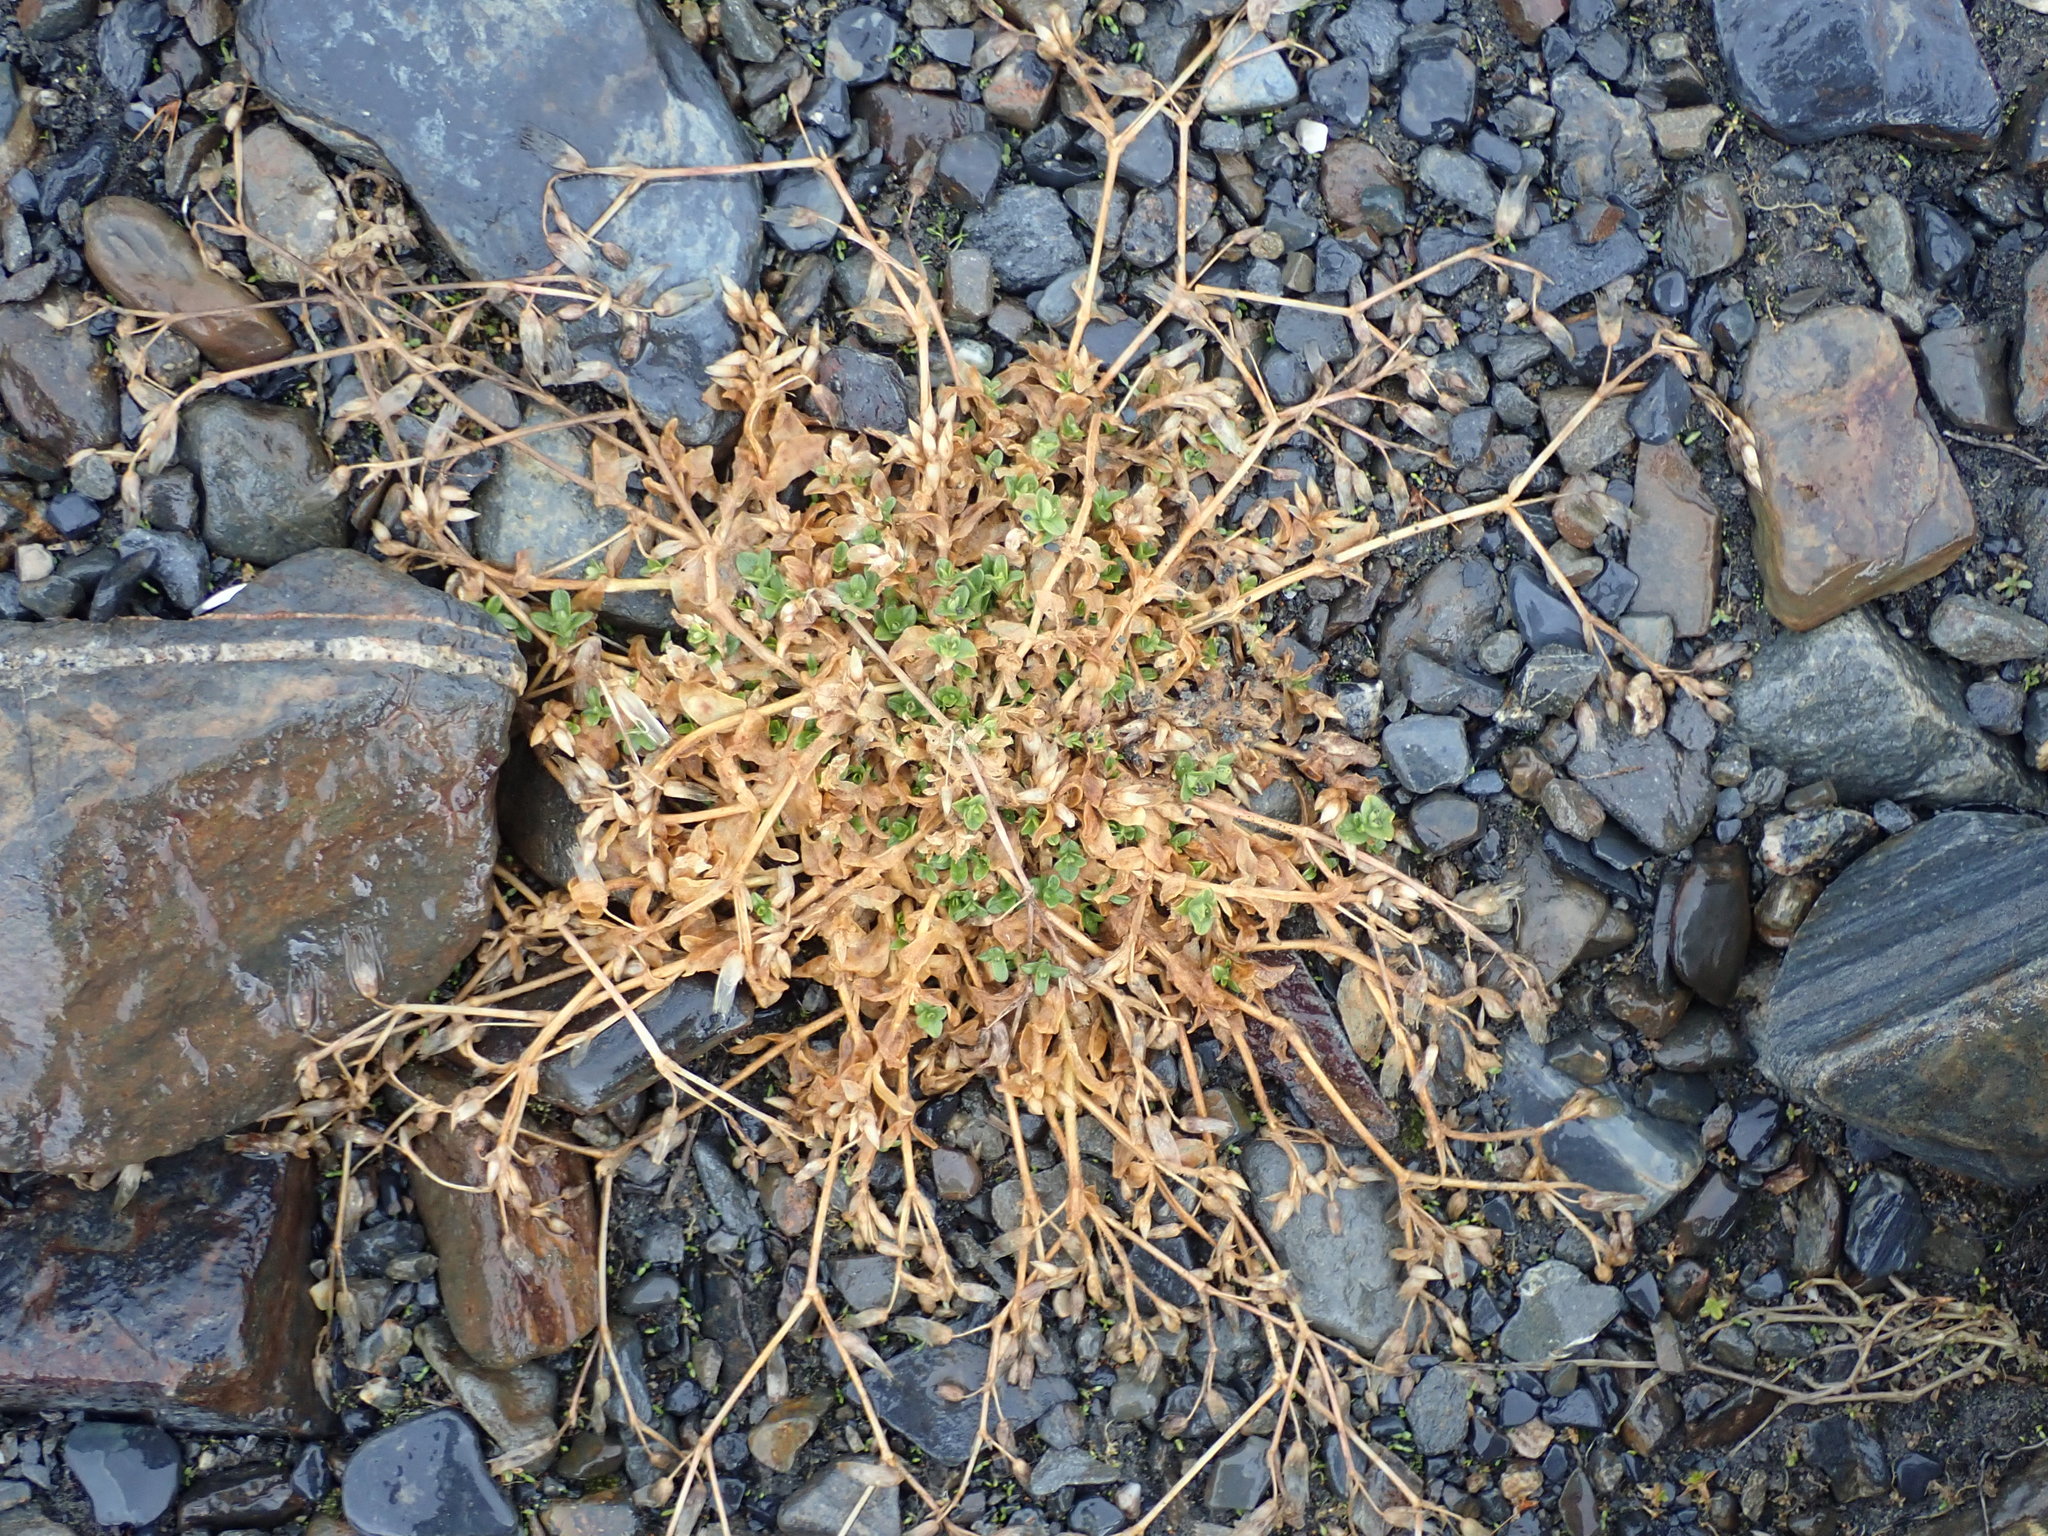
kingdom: Plantae
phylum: Tracheophyta
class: Magnoliopsida
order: Caryophyllales
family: Caryophyllaceae
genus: Cerastium
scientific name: Cerastium fontanum
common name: Common mouse-ear
